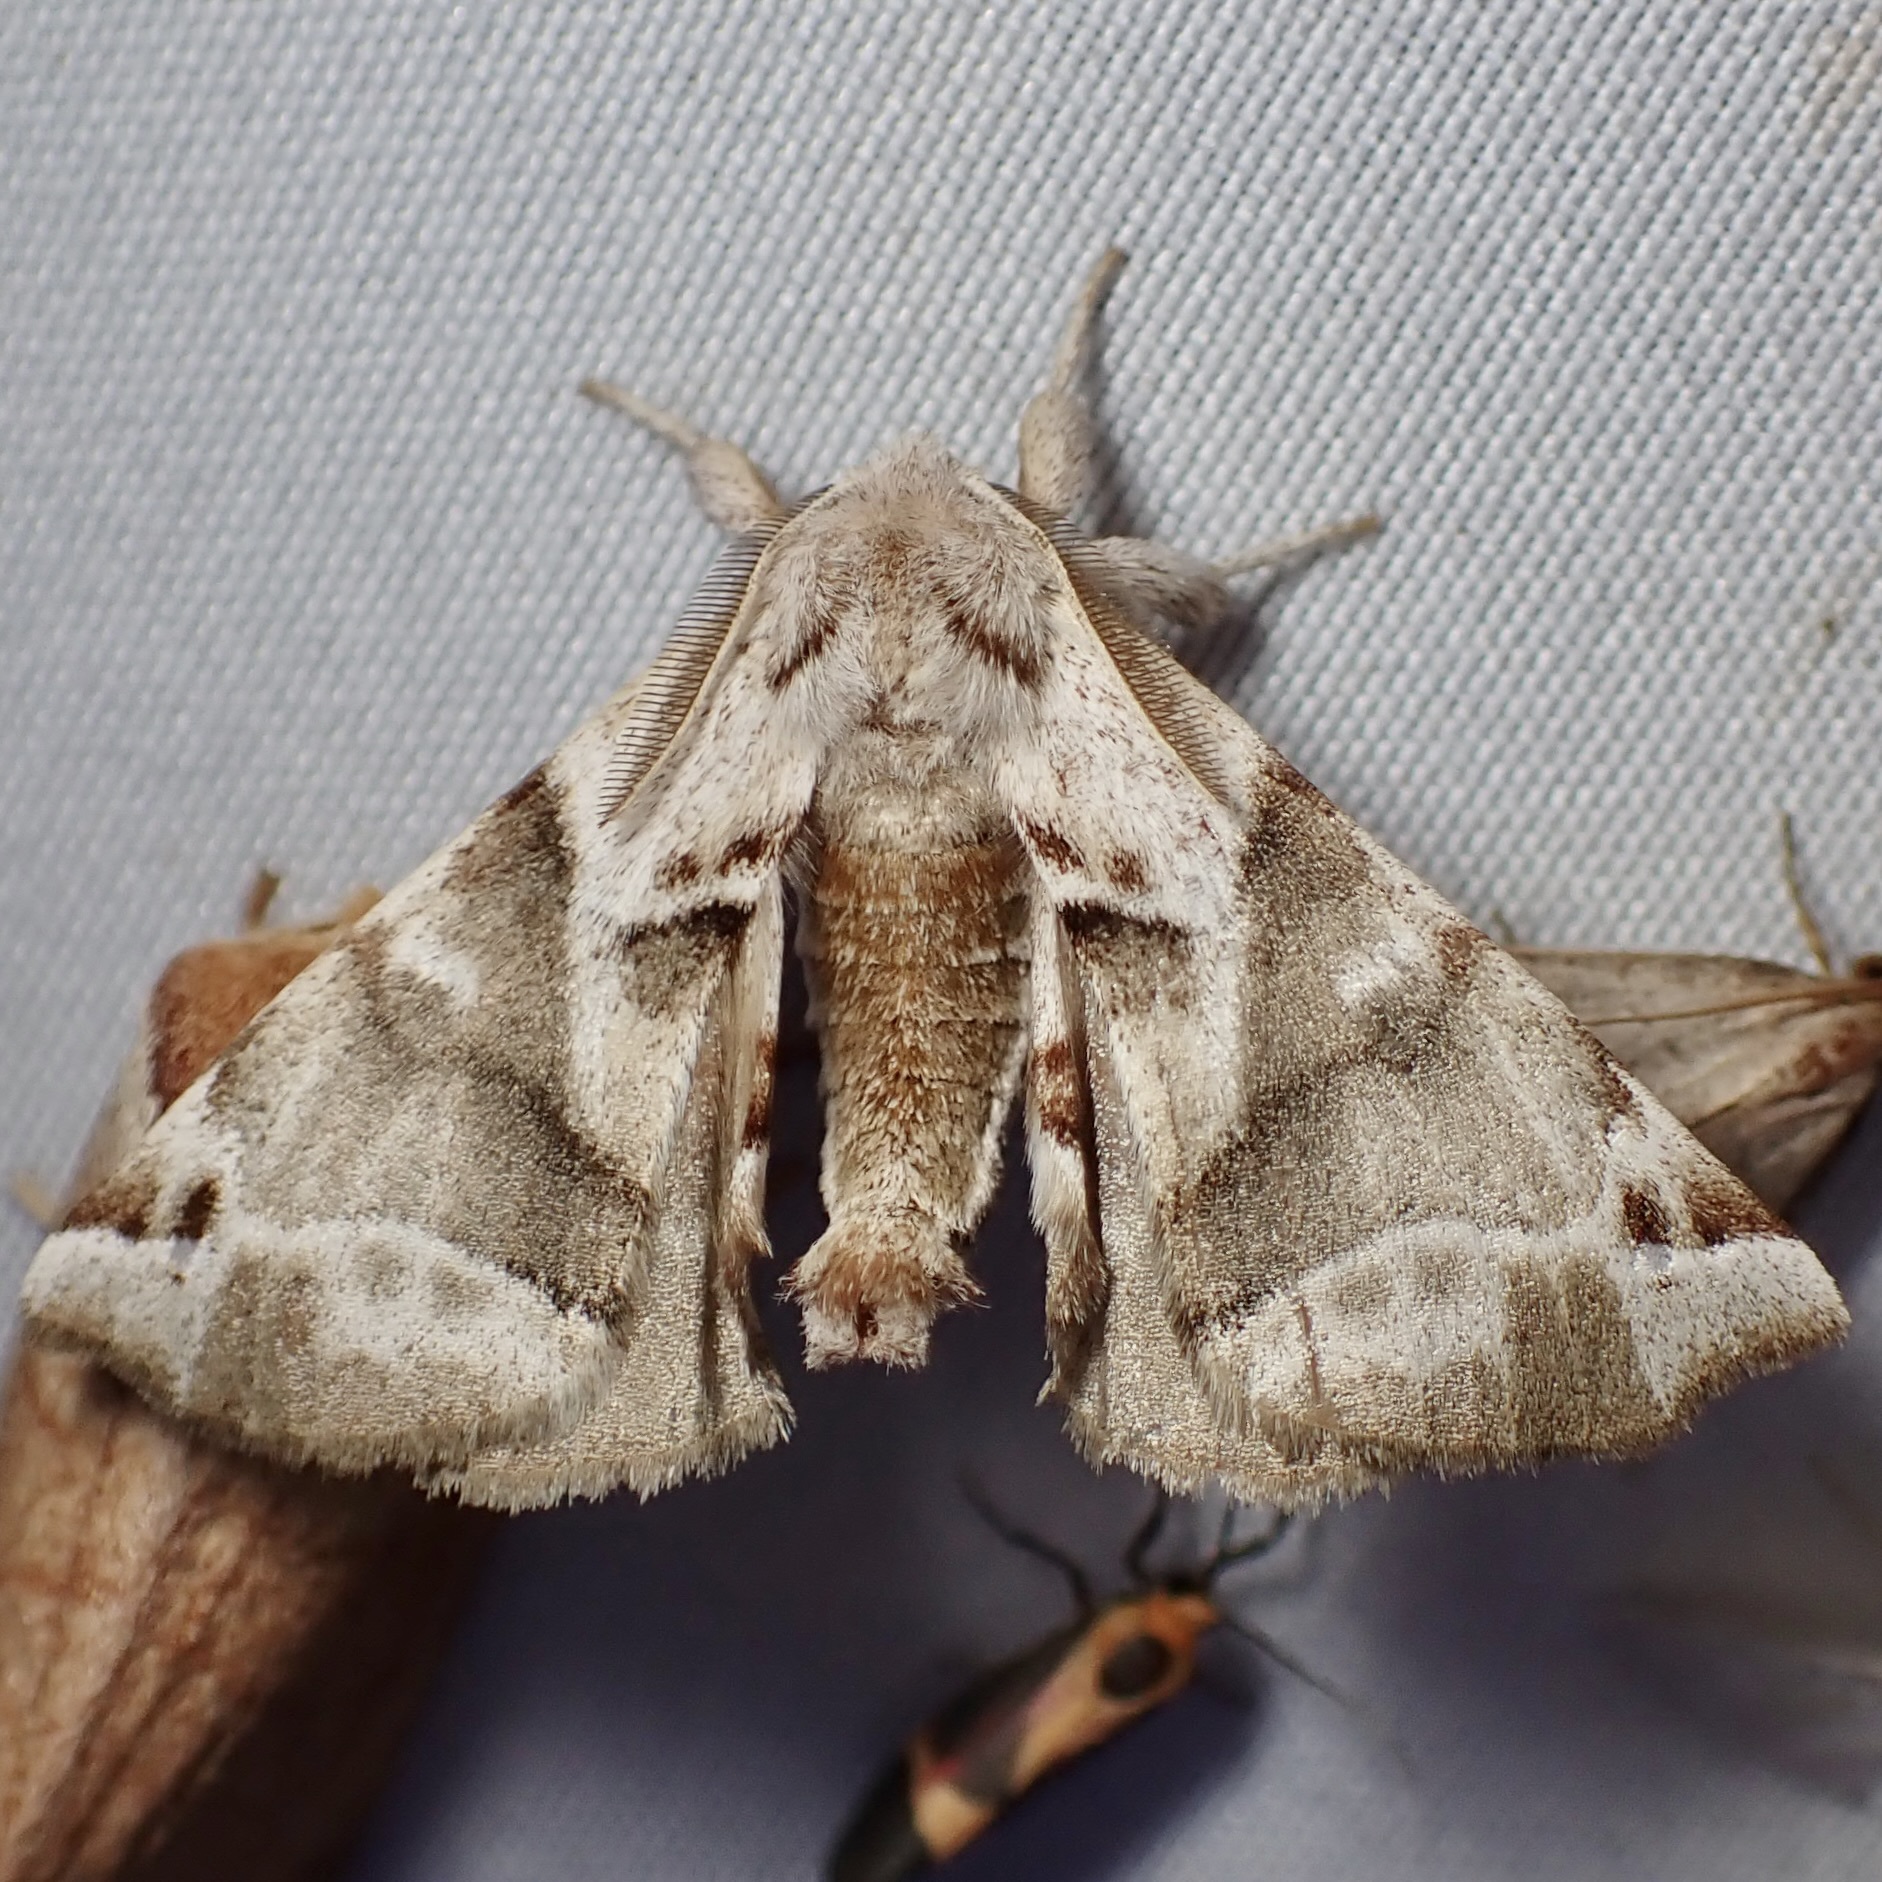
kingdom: Animalia
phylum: Arthropoda
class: Insecta
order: Lepidoptera
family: Apatelodidae
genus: Hygrochroa
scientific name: Hygrochroa Apatelodes pudefacta
